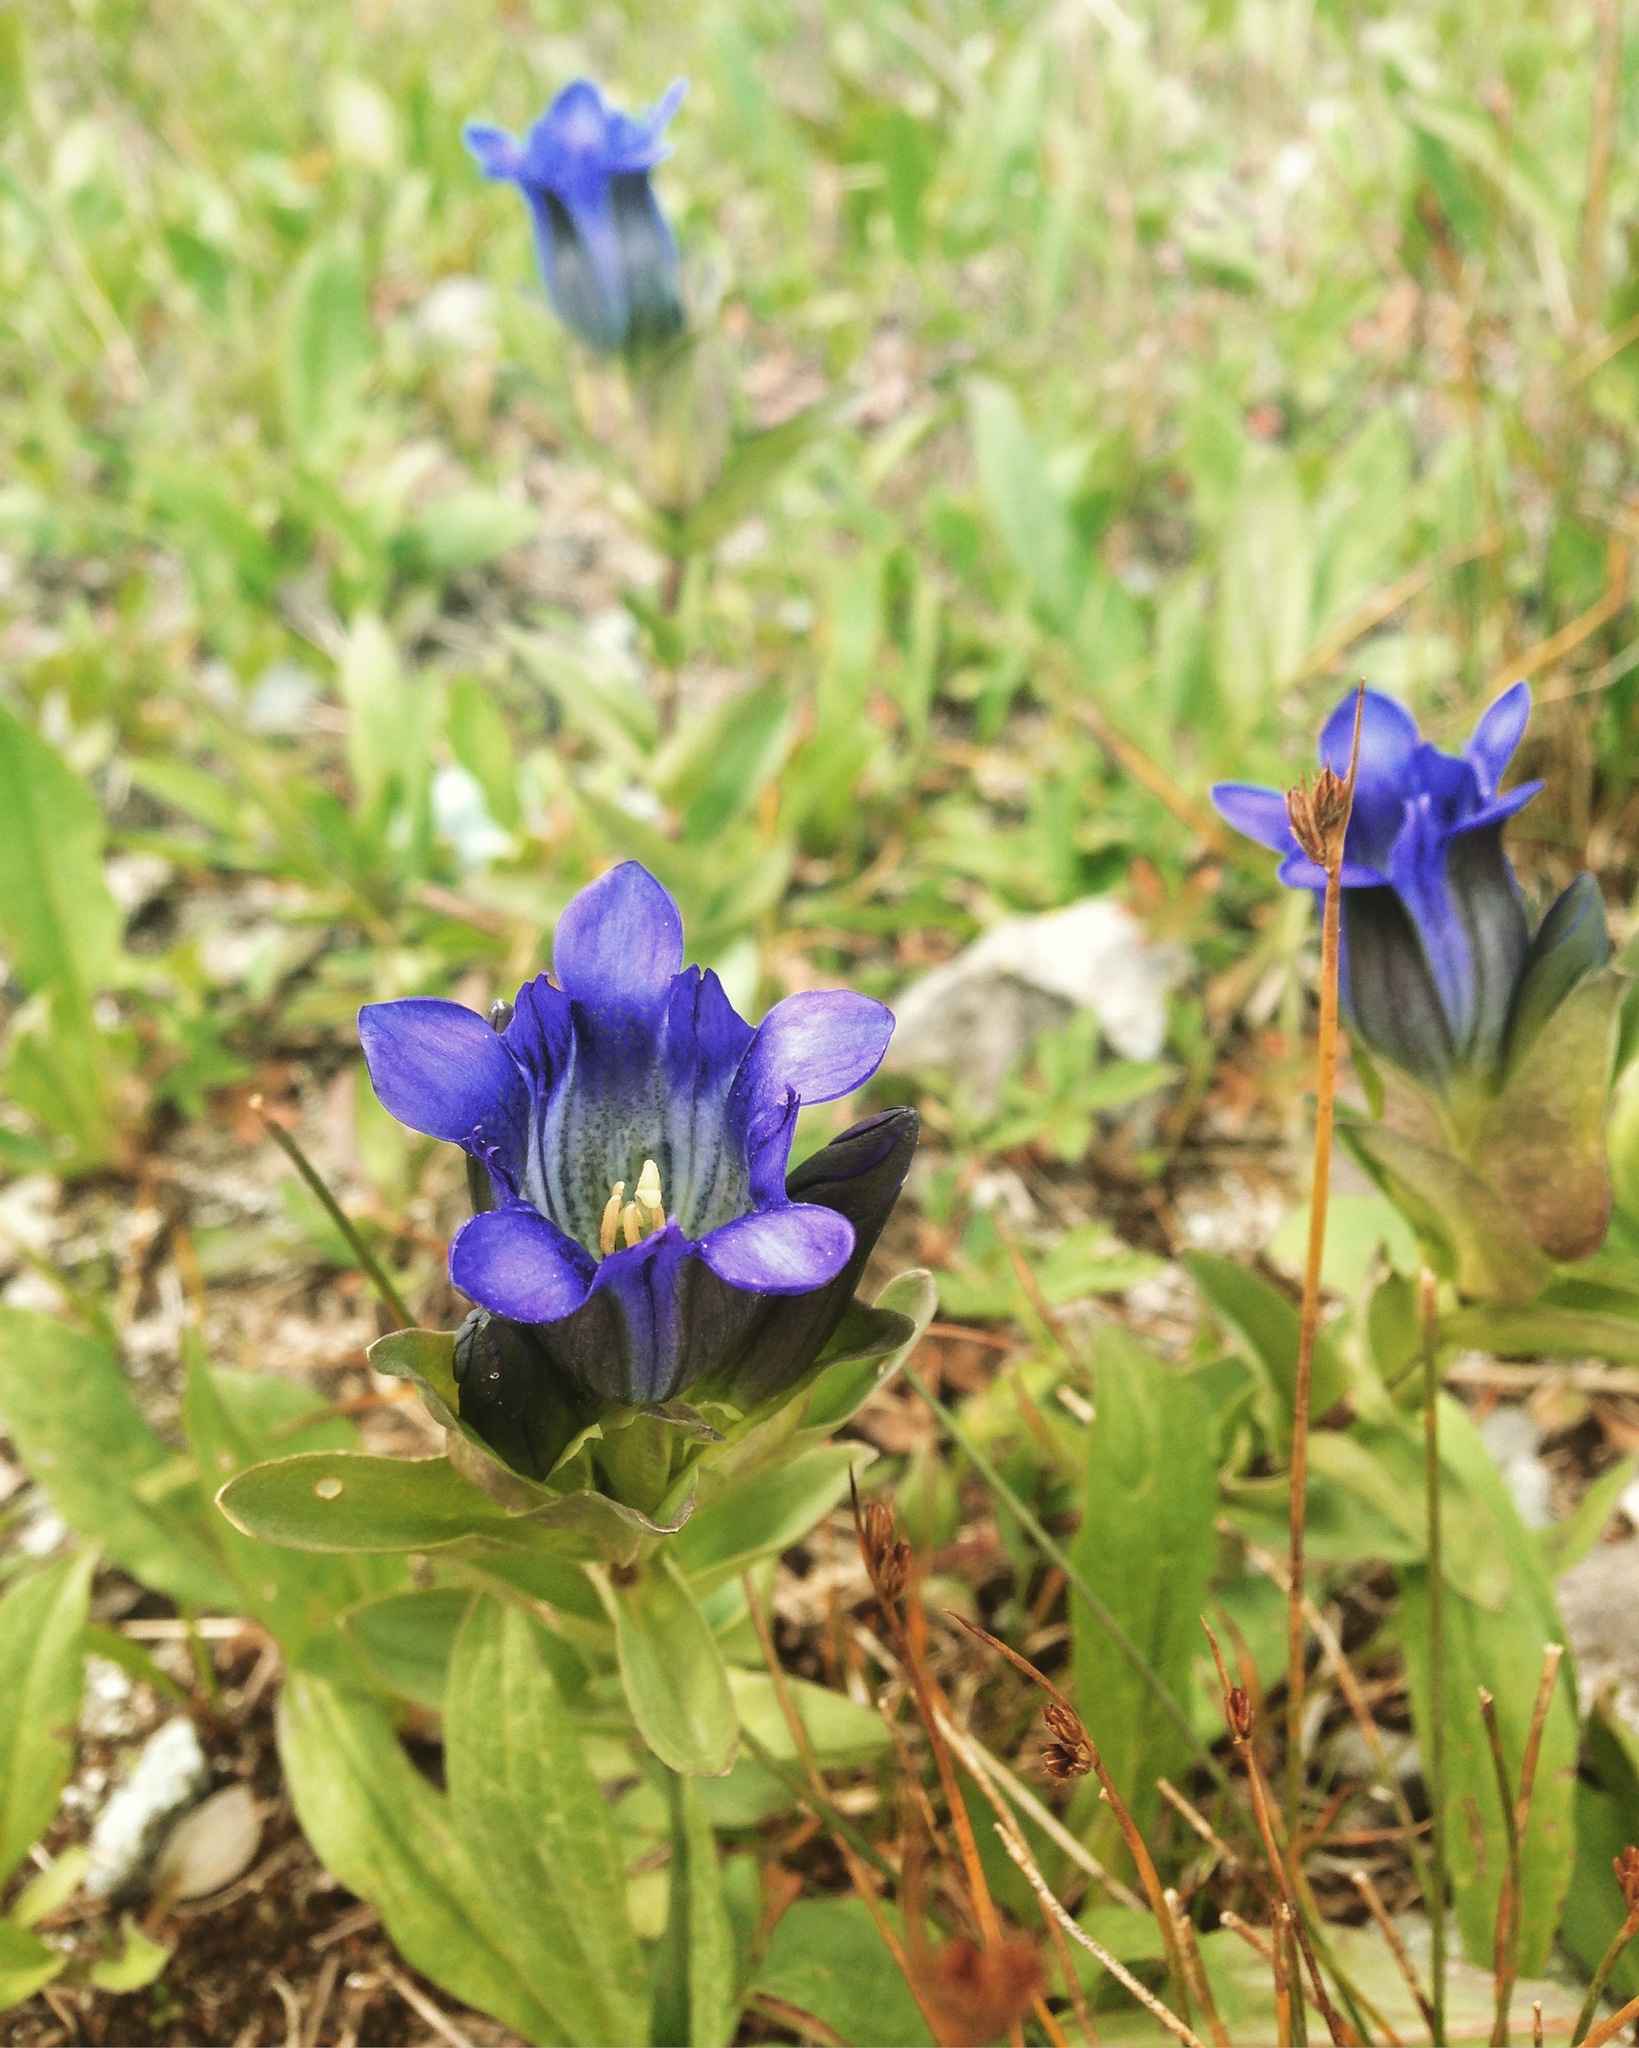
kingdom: Plantae
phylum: Tracheophyta
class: Magnoliopsida
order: Gentianales
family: Gentianaceae
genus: Gentiana
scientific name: Gentiana parryi
